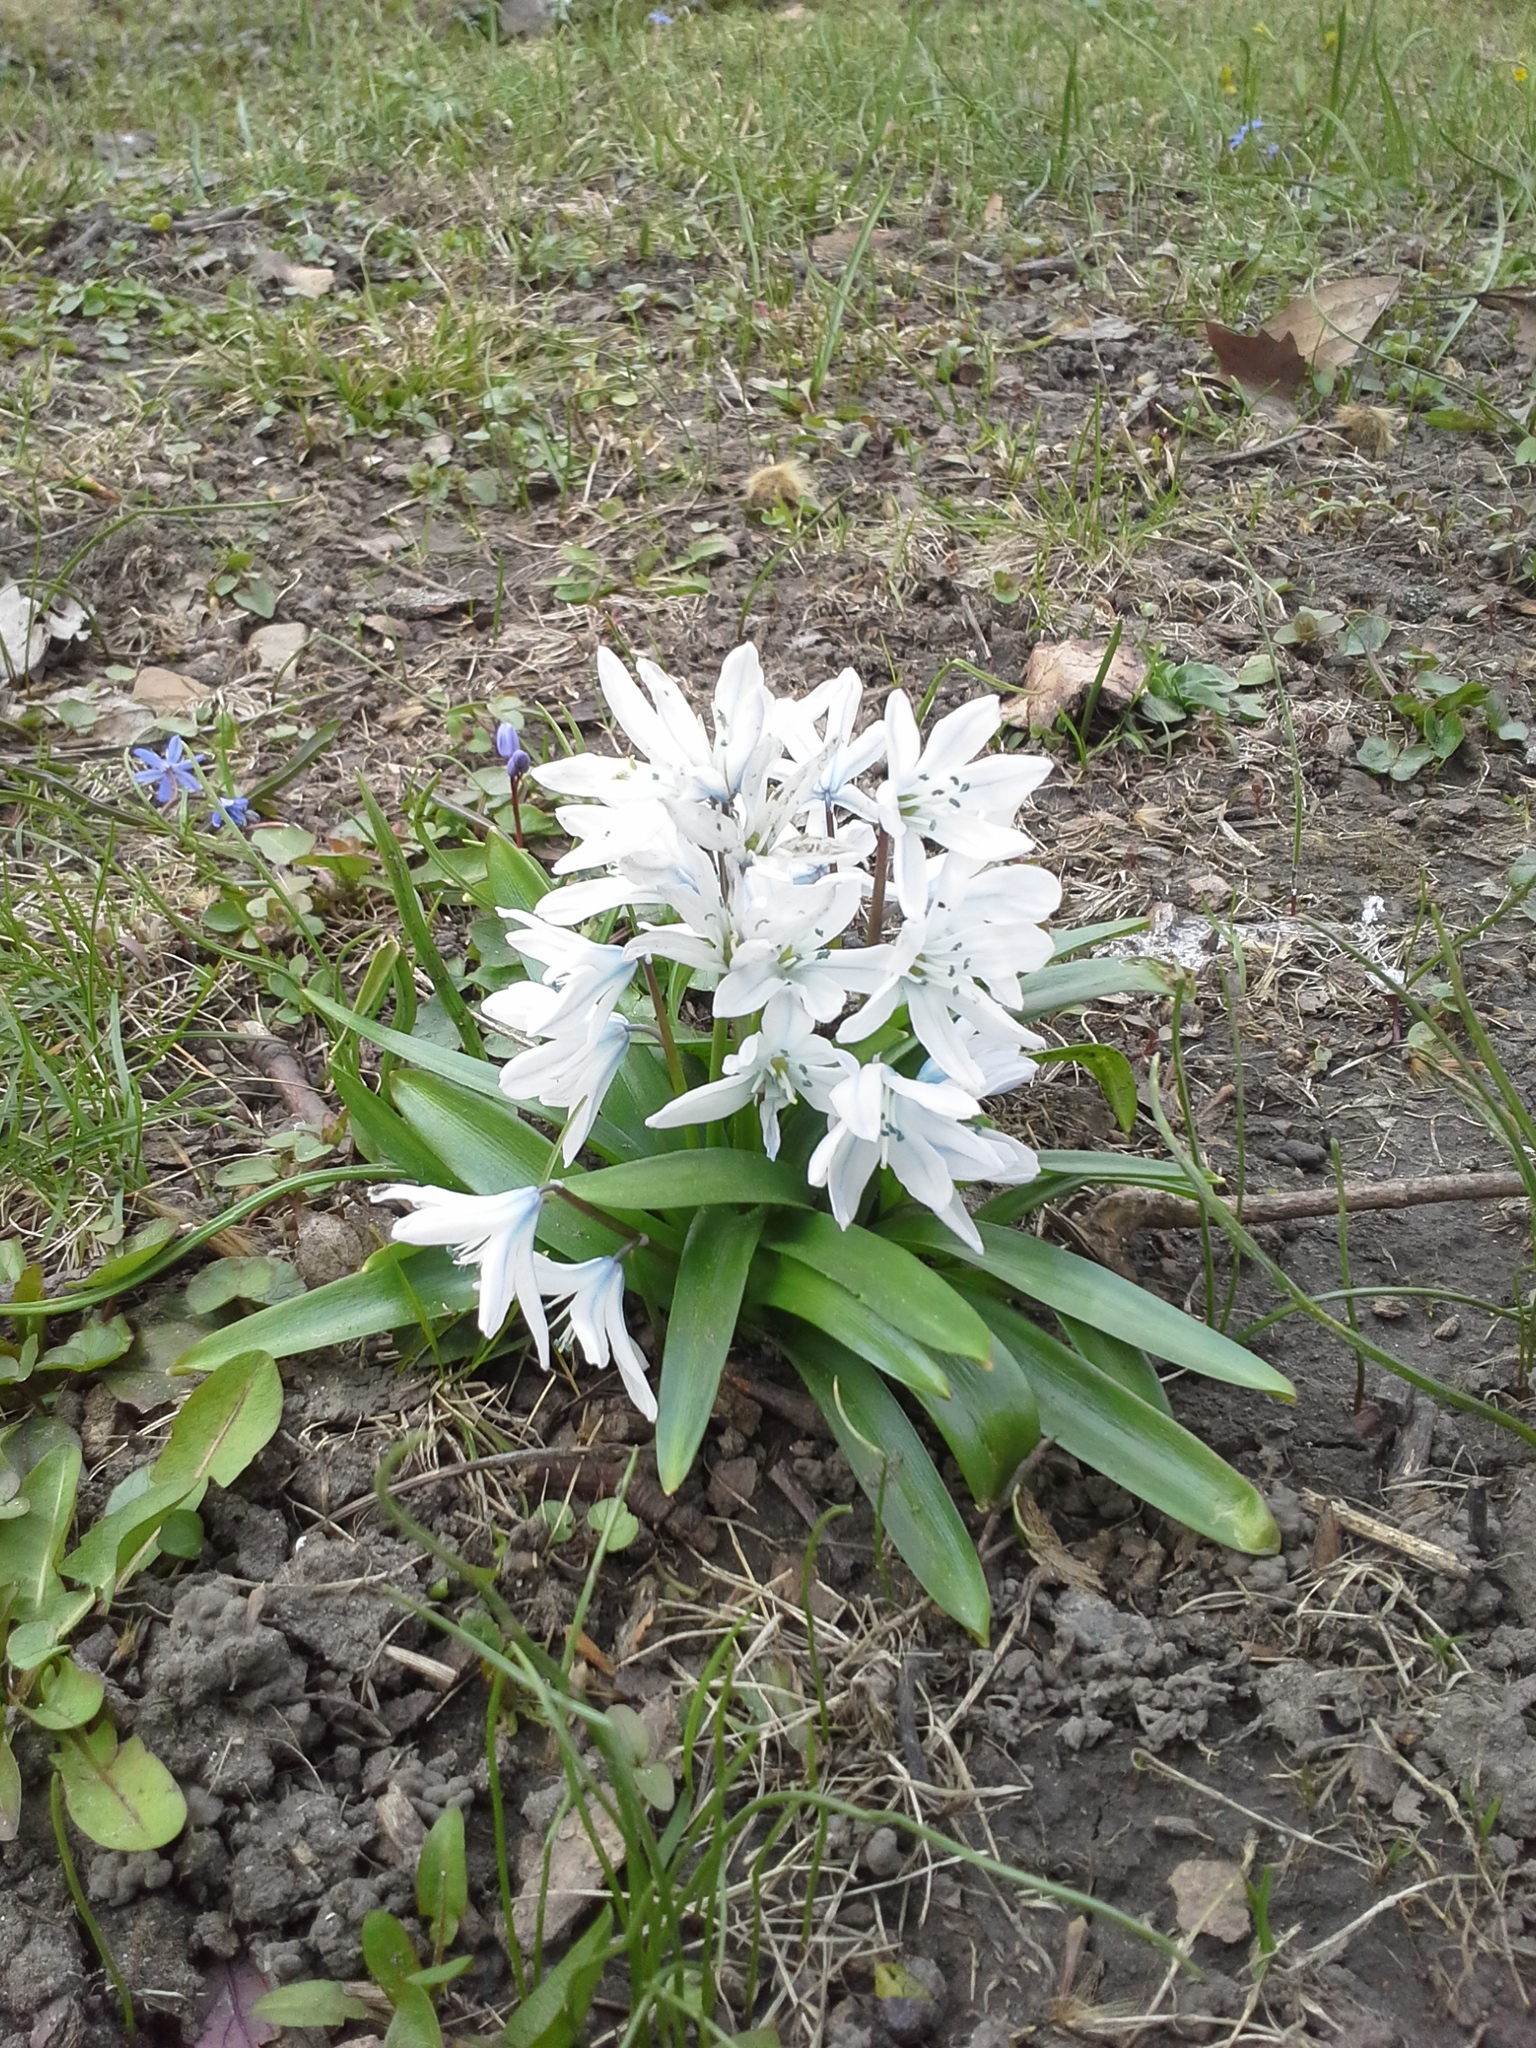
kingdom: Plantae
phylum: Tracheophyta
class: Liliopsida
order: Asparagales
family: Asparagaceae
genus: Scilla
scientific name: Scilla mischtschenkoana
